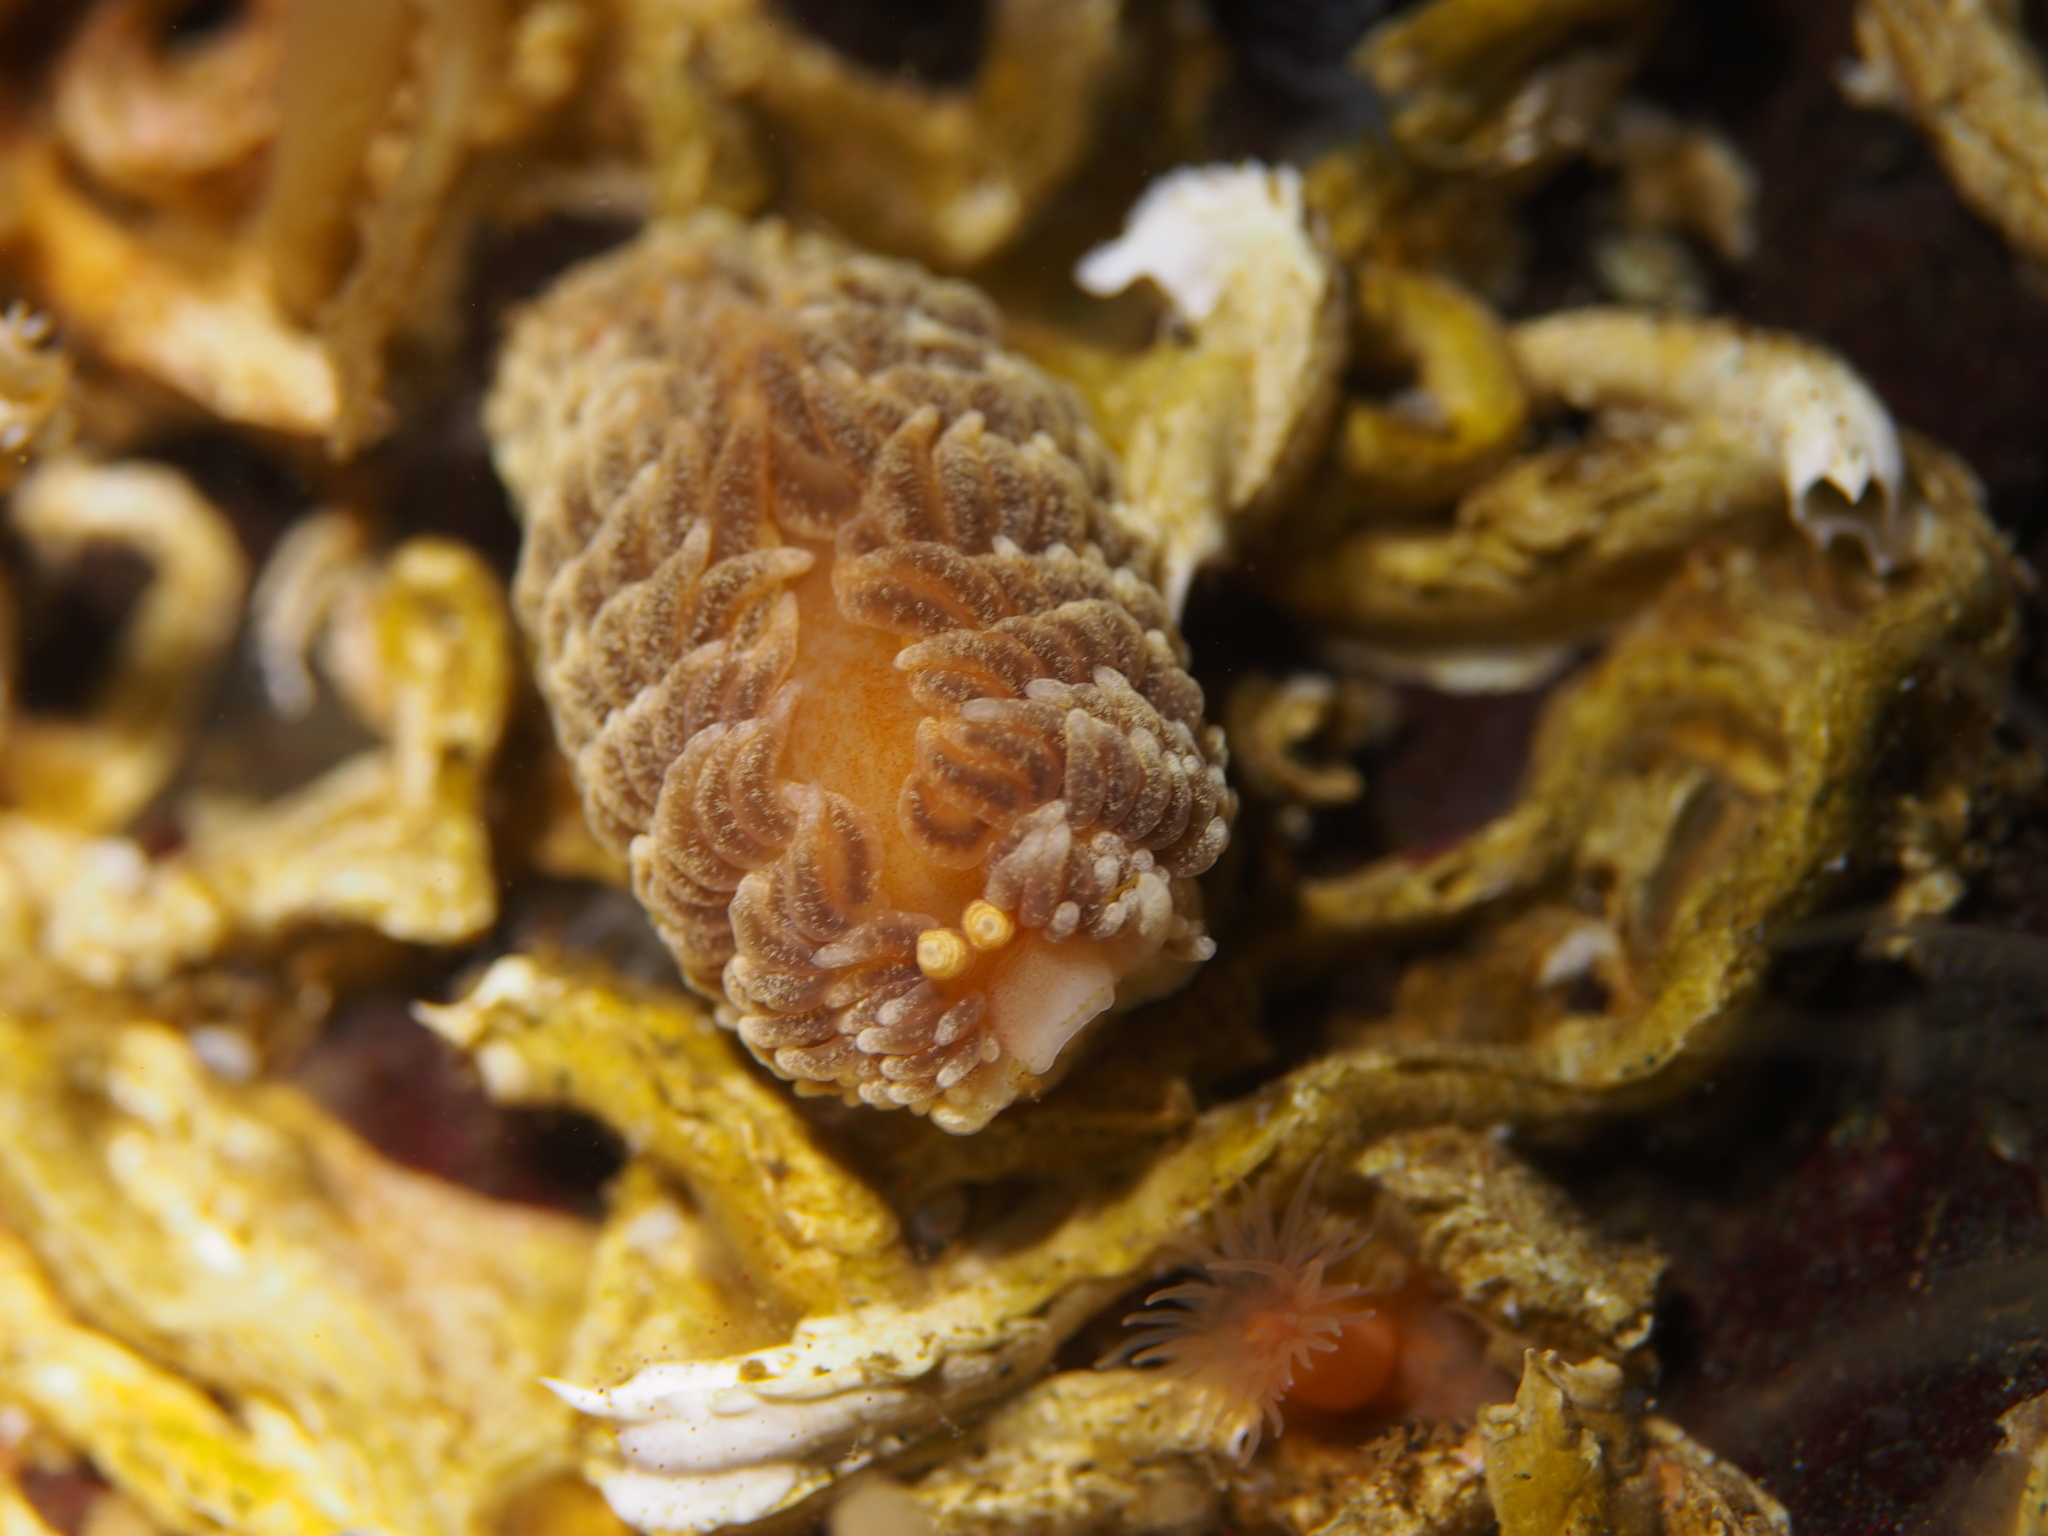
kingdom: Animalia
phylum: Mollusca
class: Gastropoda
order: Nudibranchia
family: Aeolidiidae
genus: Aeolidiella
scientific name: Aeolidiella glauca
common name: Orange-brown aeolid
